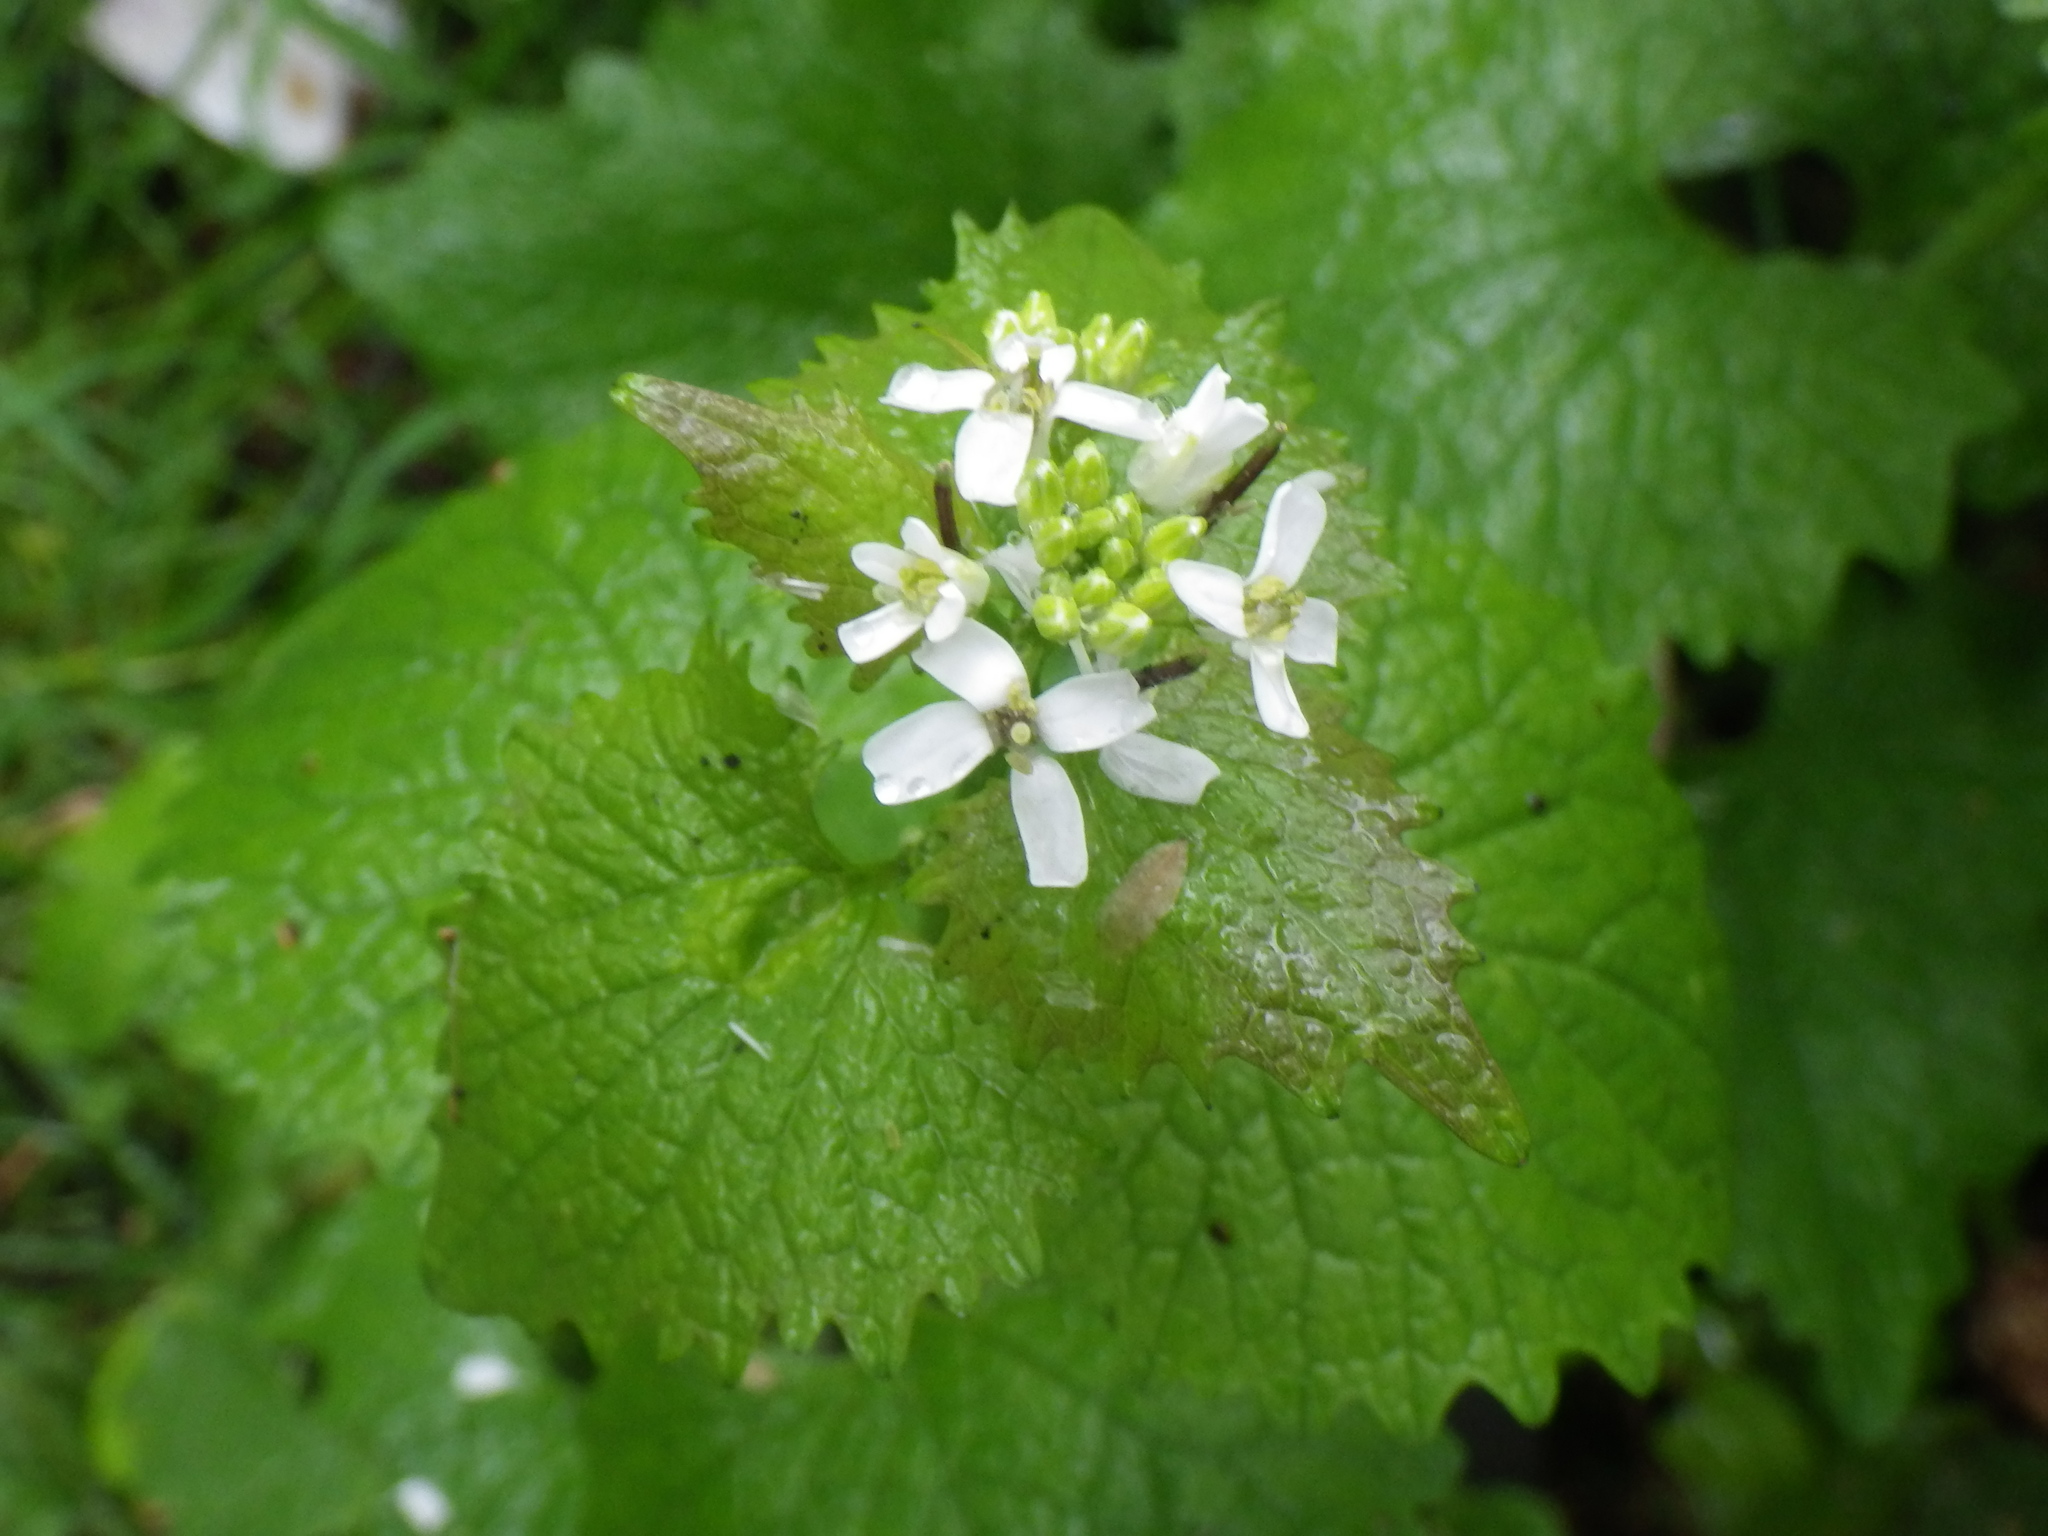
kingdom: Plantae
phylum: Tracheophyta
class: Magnoliopsida
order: Brassicales
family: Brassicaceae
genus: Alliaria
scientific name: Alliaria petiolata
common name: Garlic mustard
